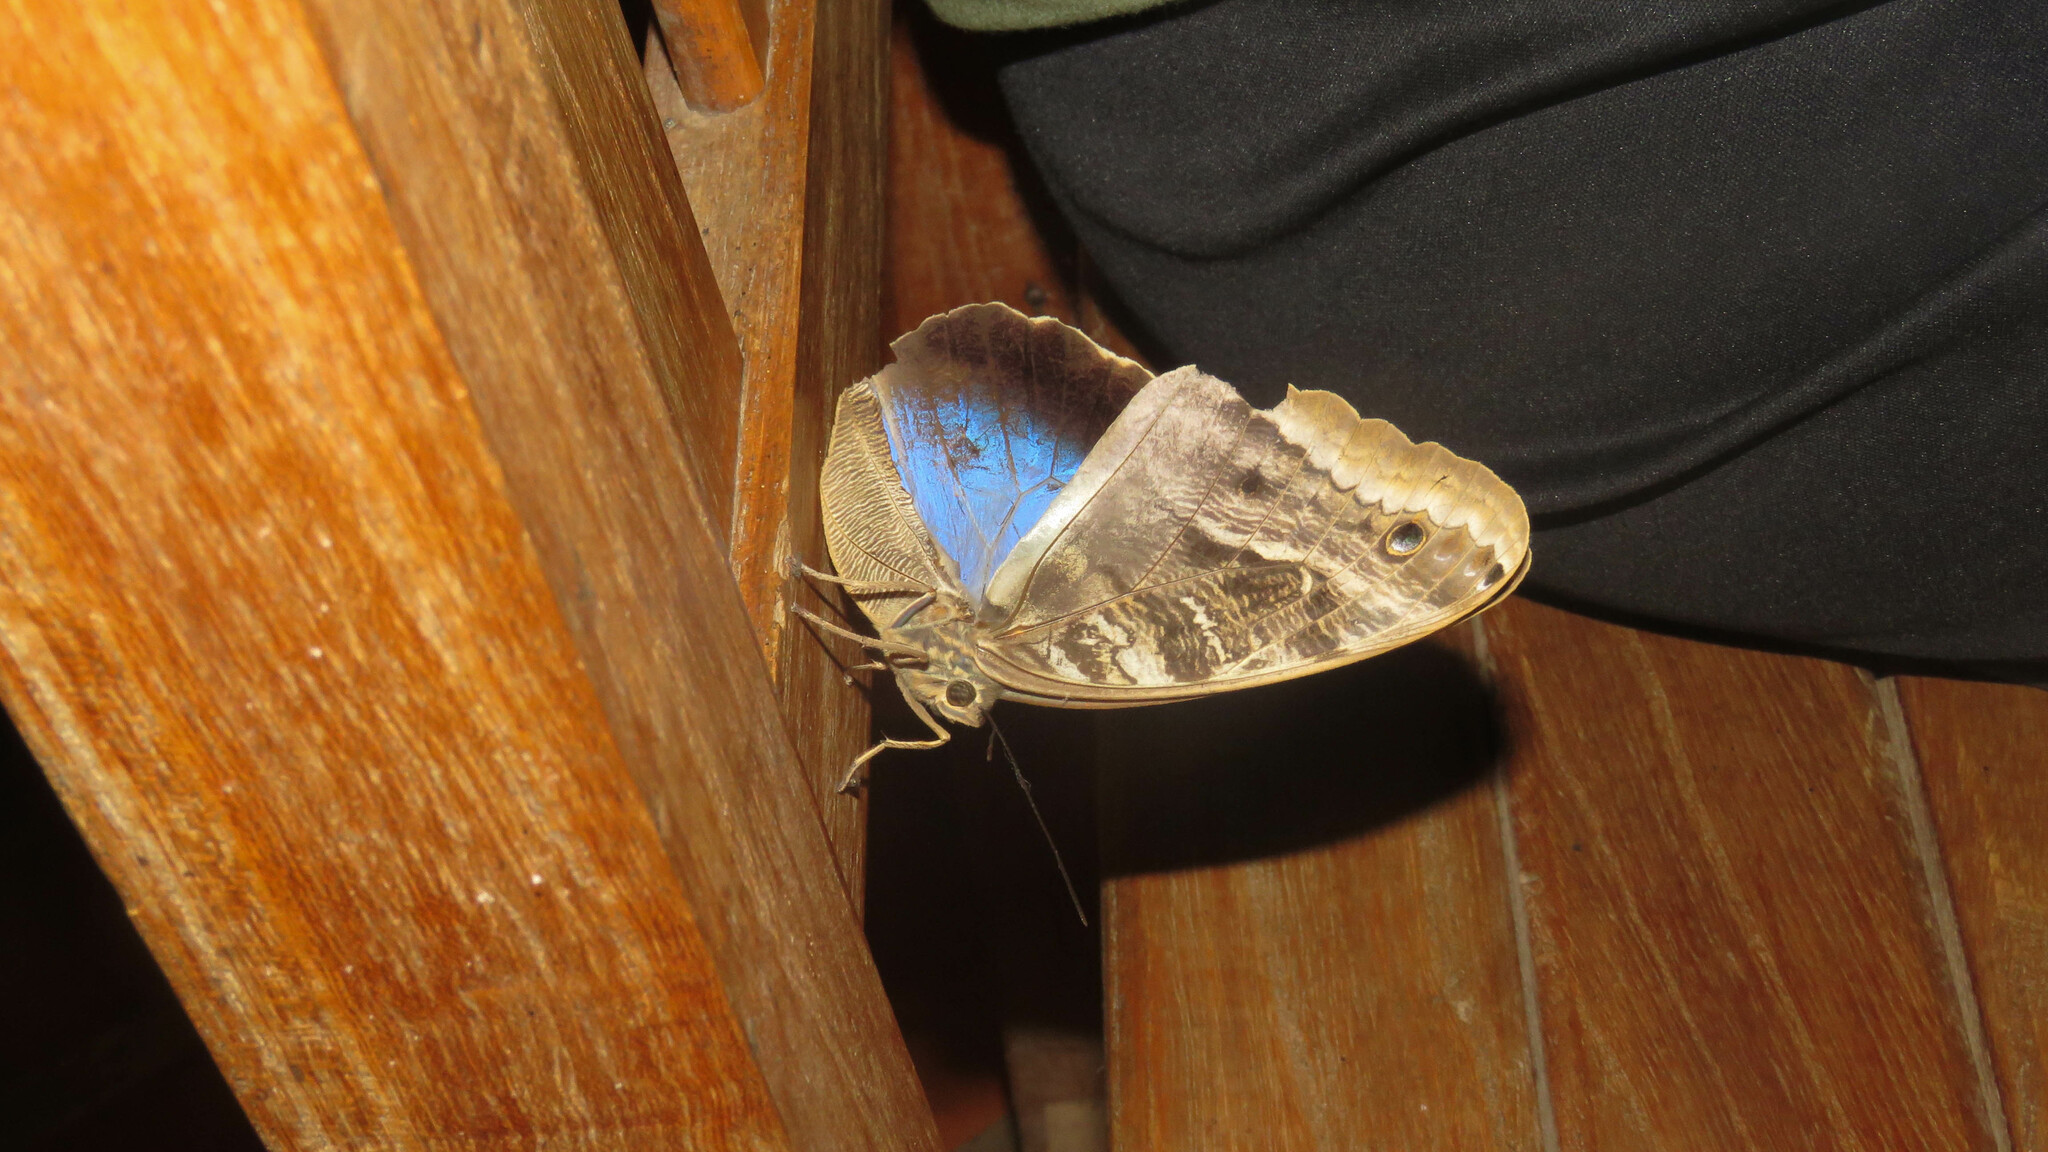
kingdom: Animalia
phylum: Arthropoda
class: Insecta
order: Lepidoptera
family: Nymphalidae
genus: Caligo
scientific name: Caligo illioneus
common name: Dusky owl-butterfly
